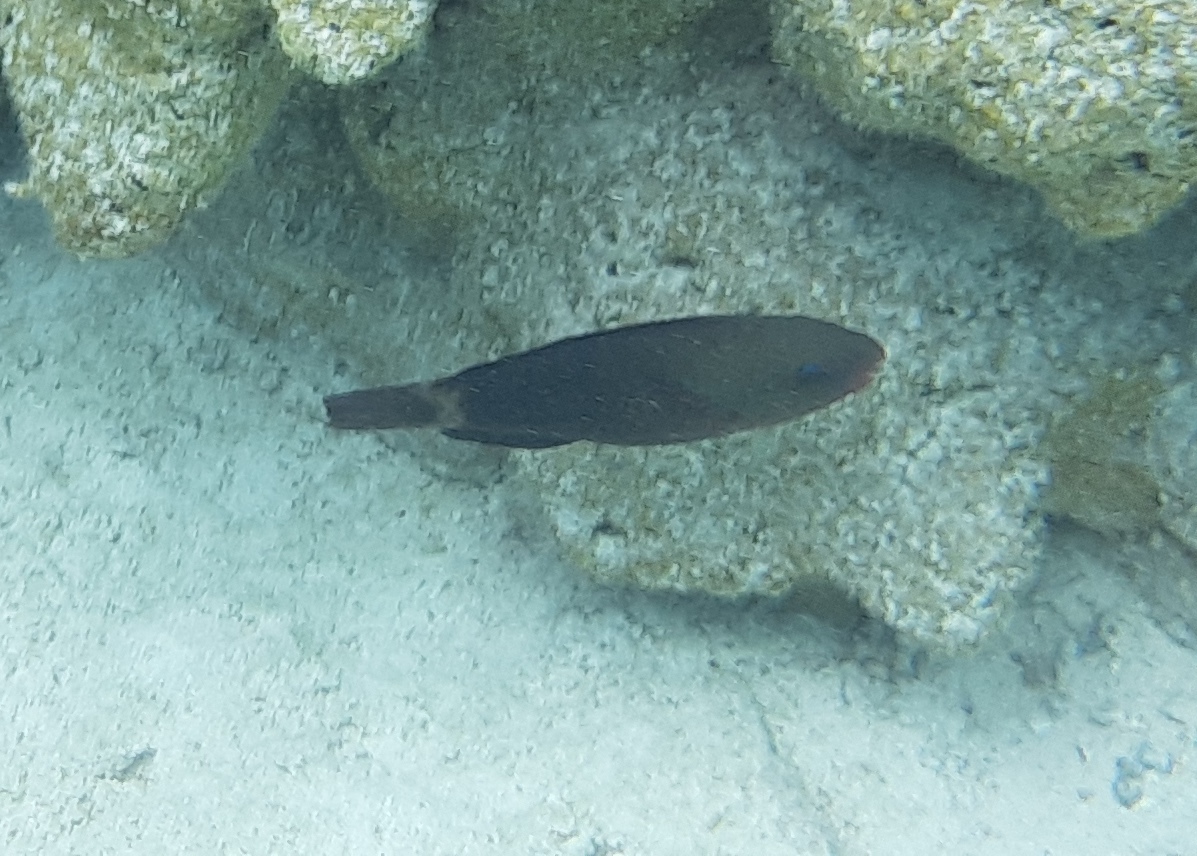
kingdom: Animalia
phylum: Chordata
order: Perciformes
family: Scaridae
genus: Chlorurus
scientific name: Chlorurus spilurus
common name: Bullethead parrotfish
